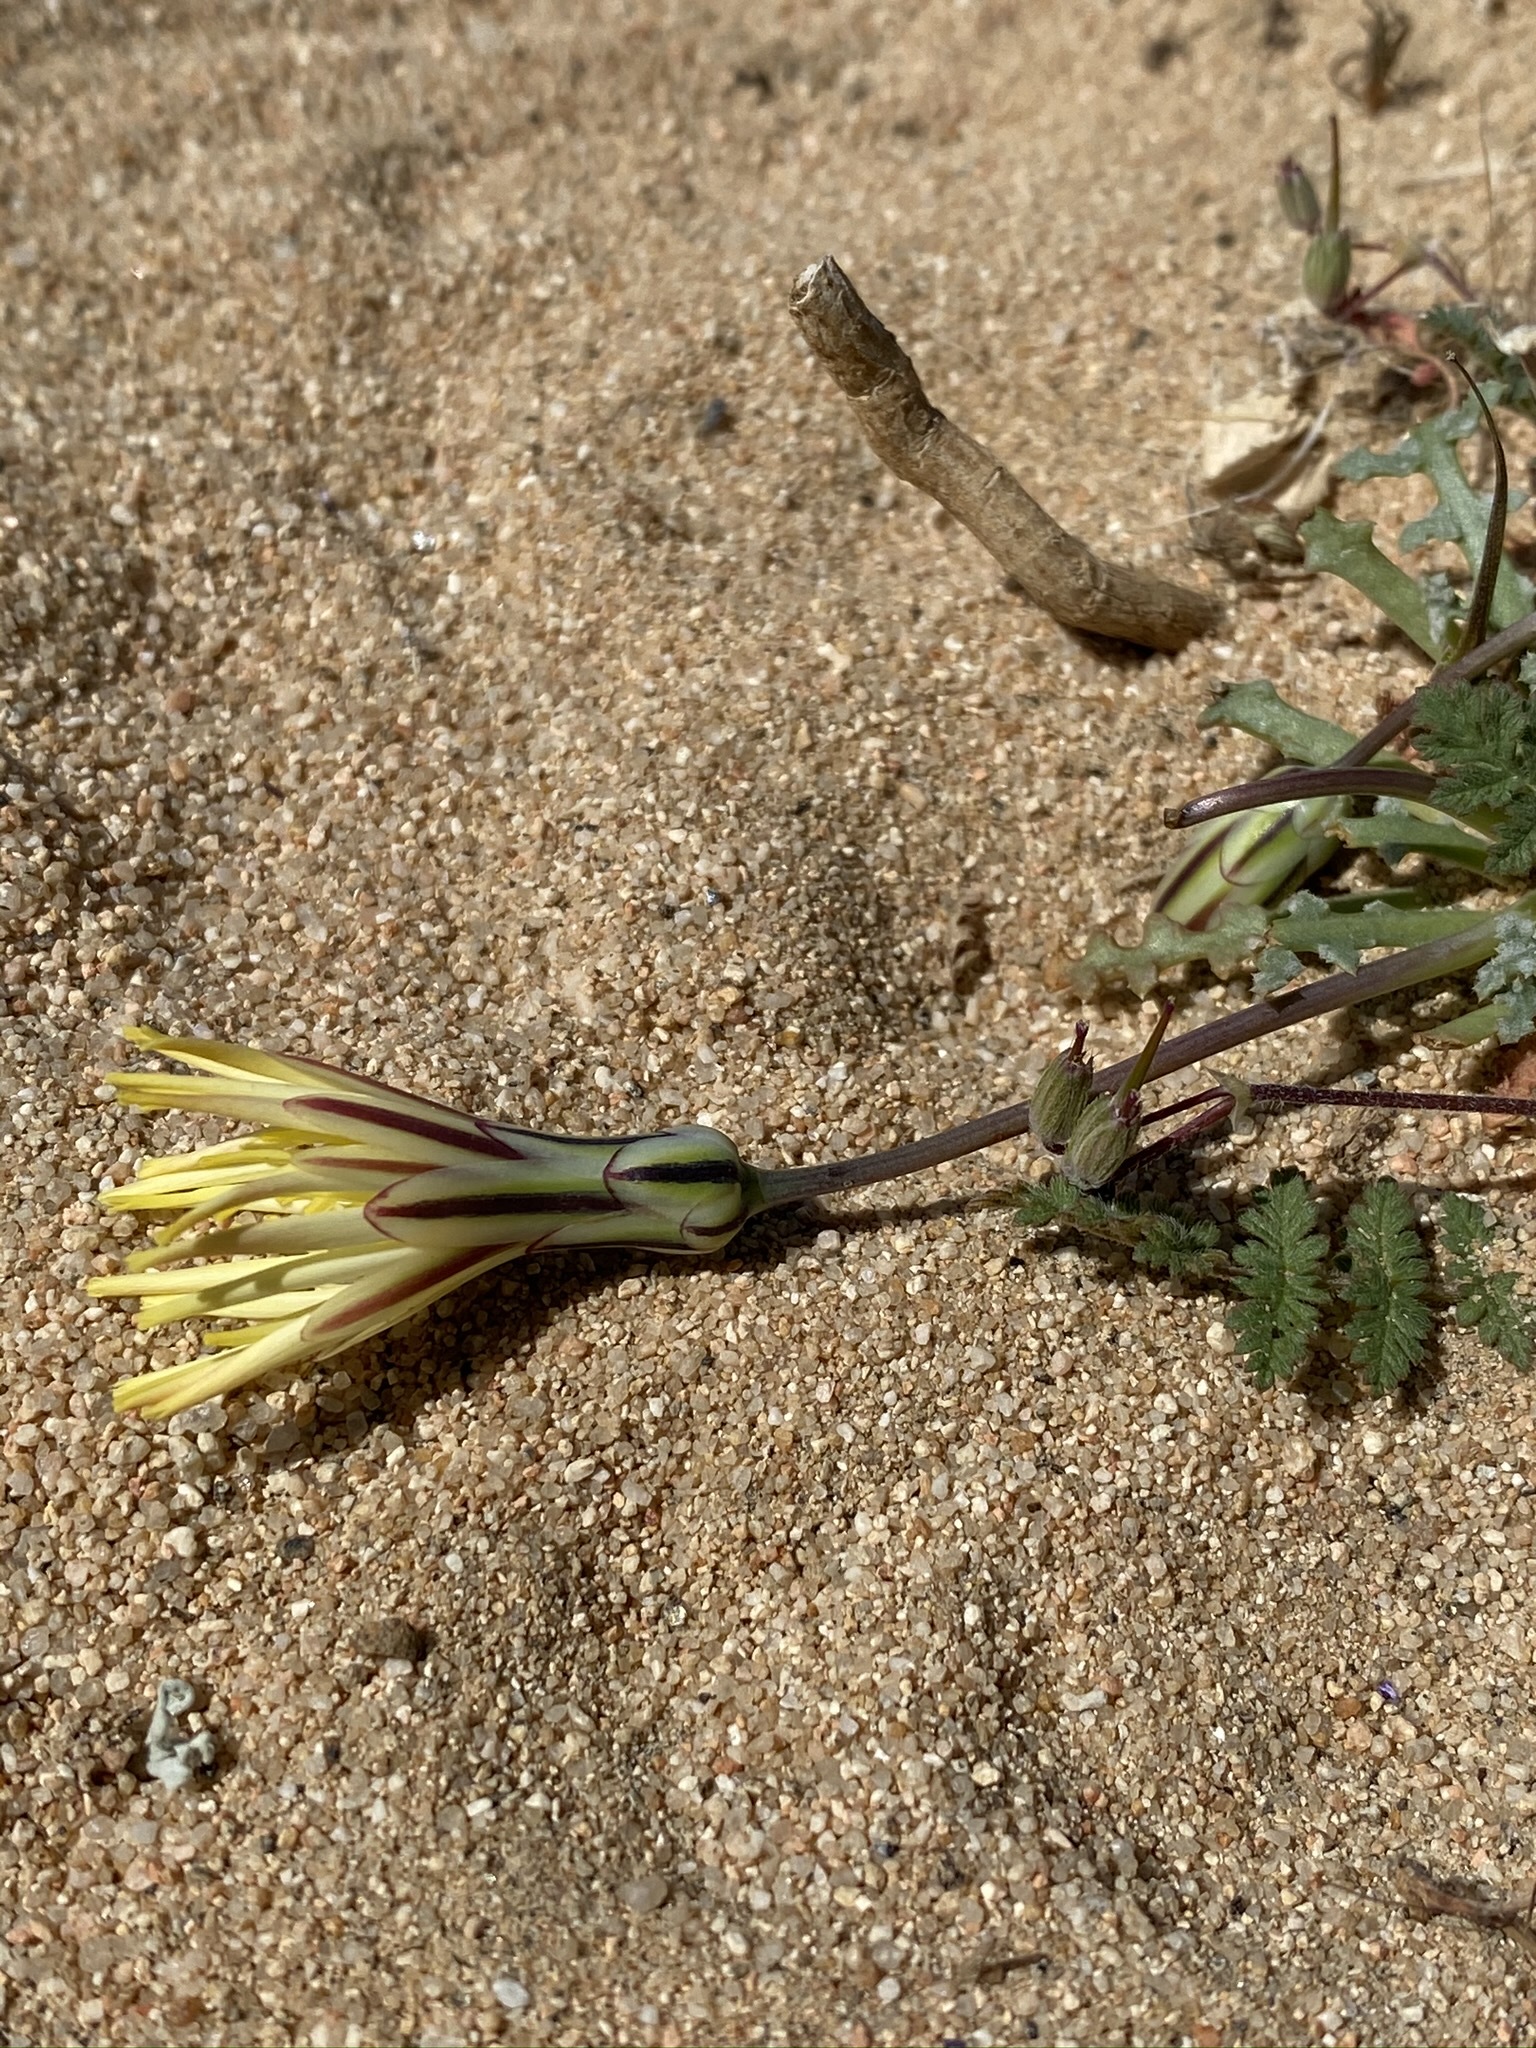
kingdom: Plantae
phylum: Tracheophyta
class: Magnoliopsida
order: Asterales
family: Asteraceae
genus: Anisocoma
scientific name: Anisocoma acaulis
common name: Scalebud
